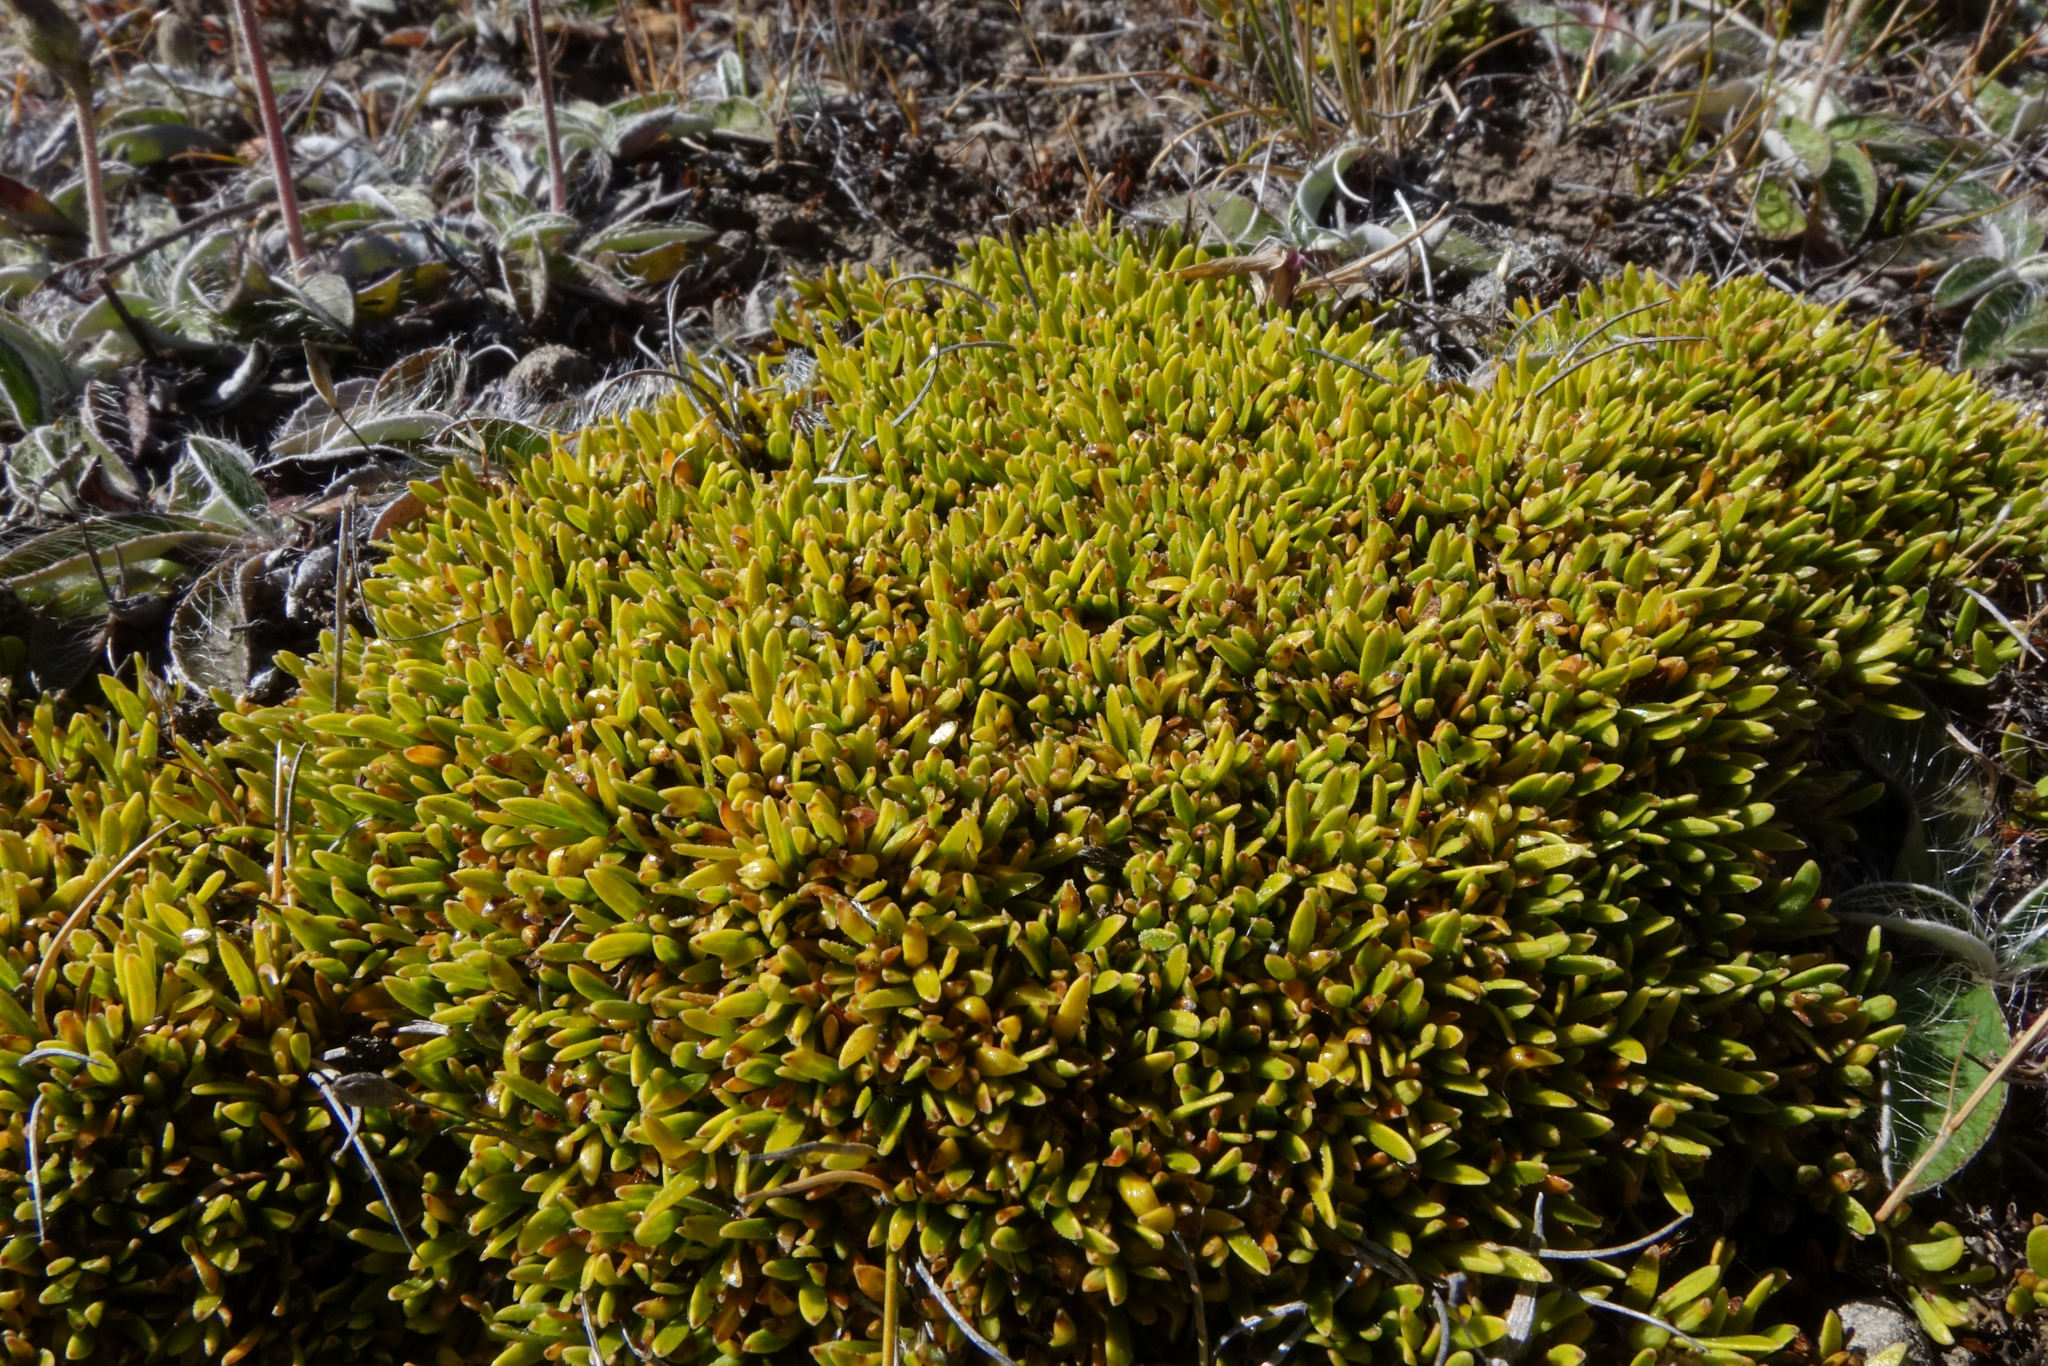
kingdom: Plantae
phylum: Tracheophyta
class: Magnoliopsida
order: Gentianales
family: Rubiaceae
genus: Coprosma
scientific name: Coprosma petriei
